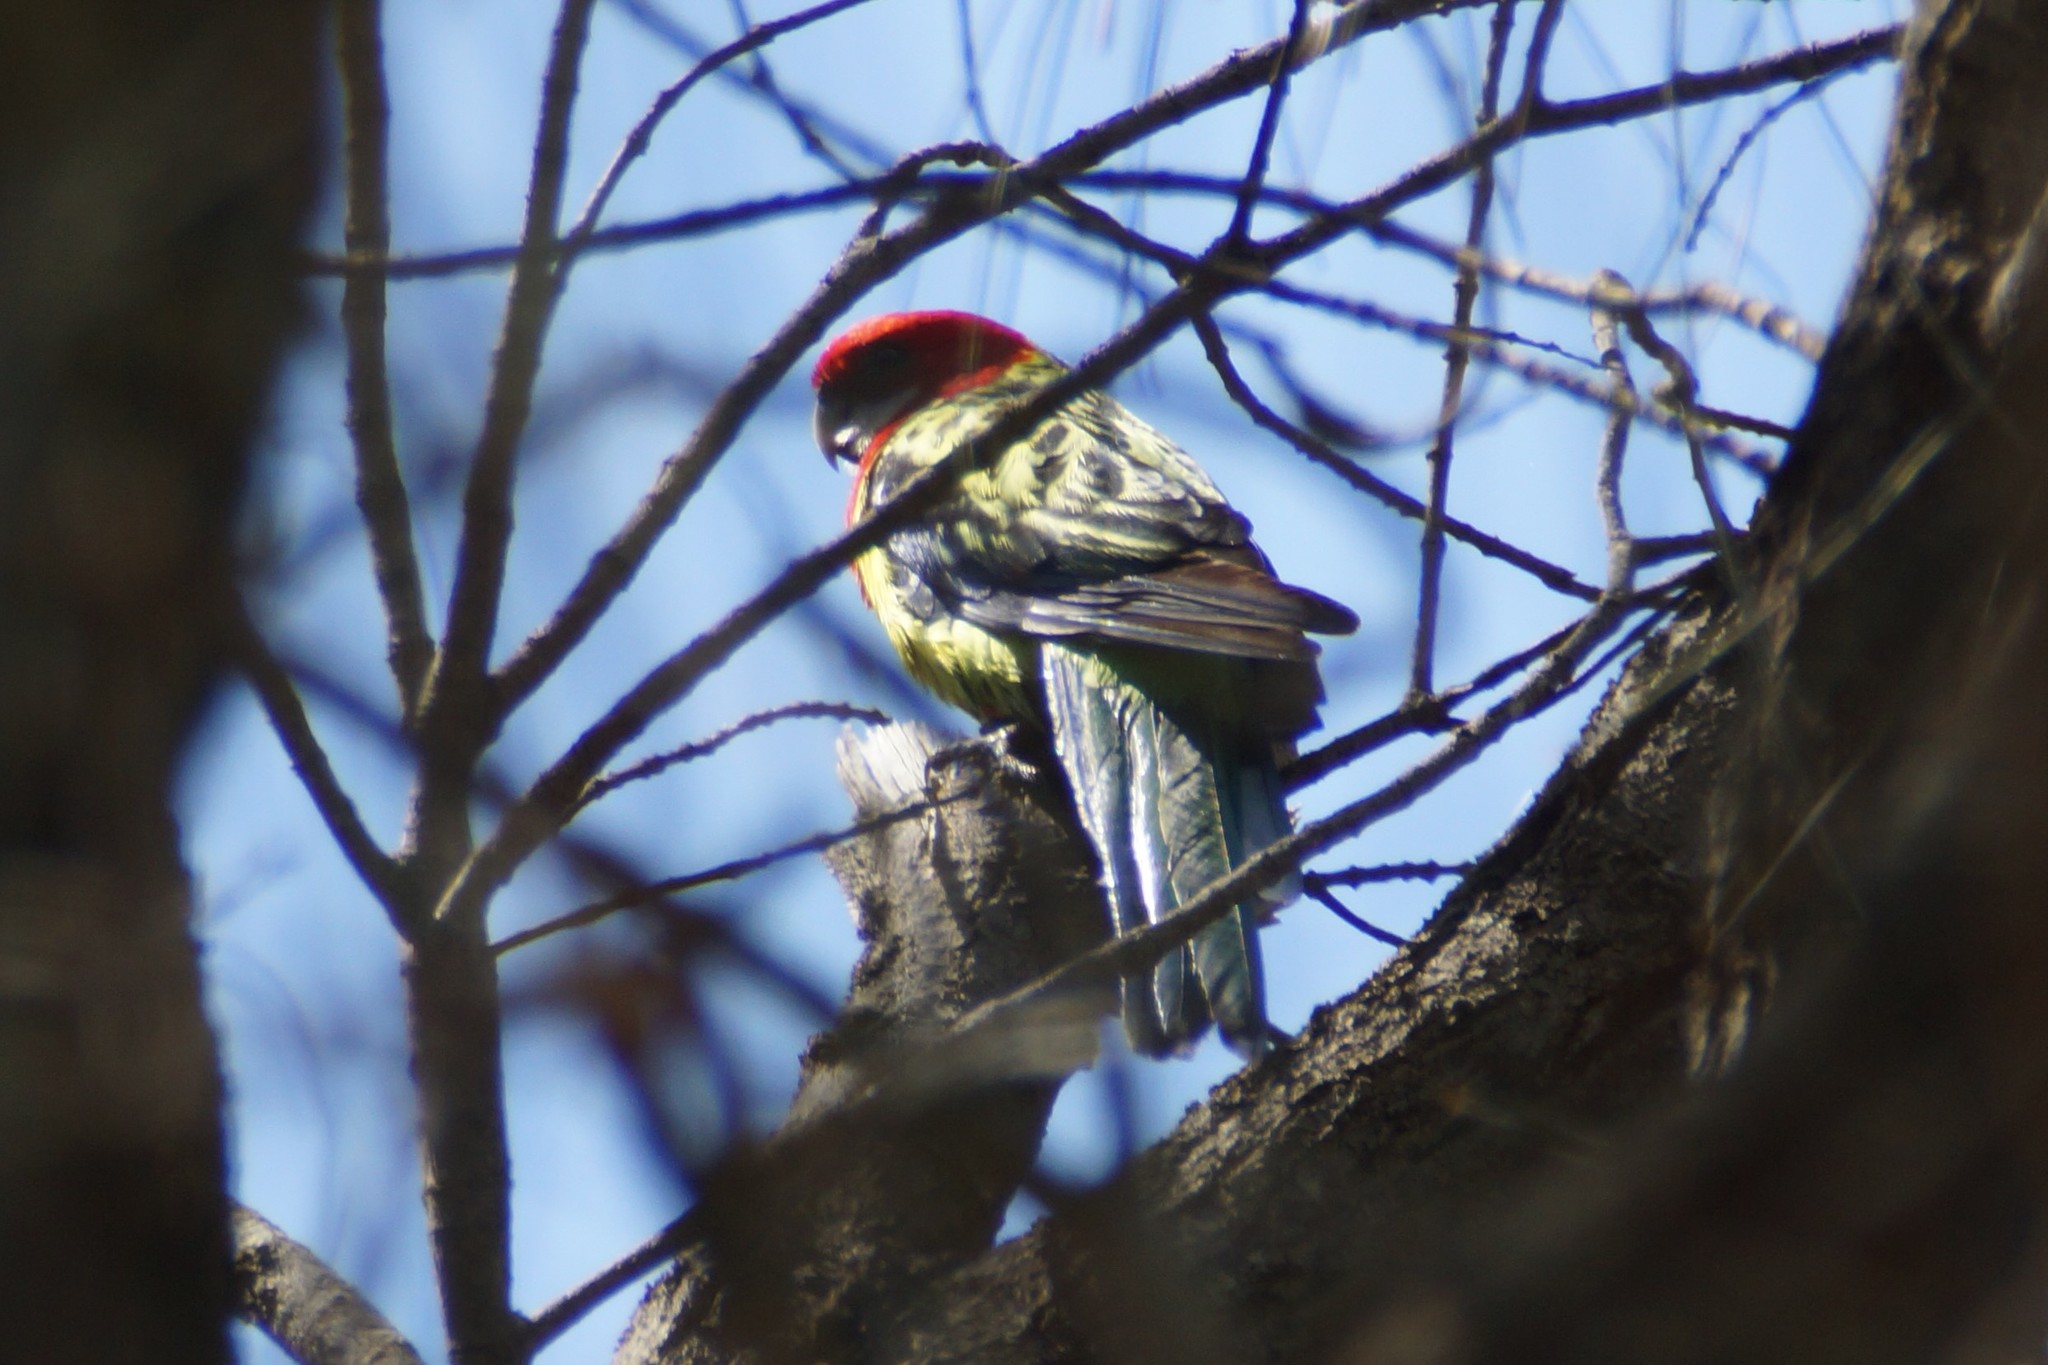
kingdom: Animalia
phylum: Chordata
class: Aves
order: Psittaciformes
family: Psittacidae
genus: Platycercus
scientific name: Platycercus eximius
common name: Eastern rosella
